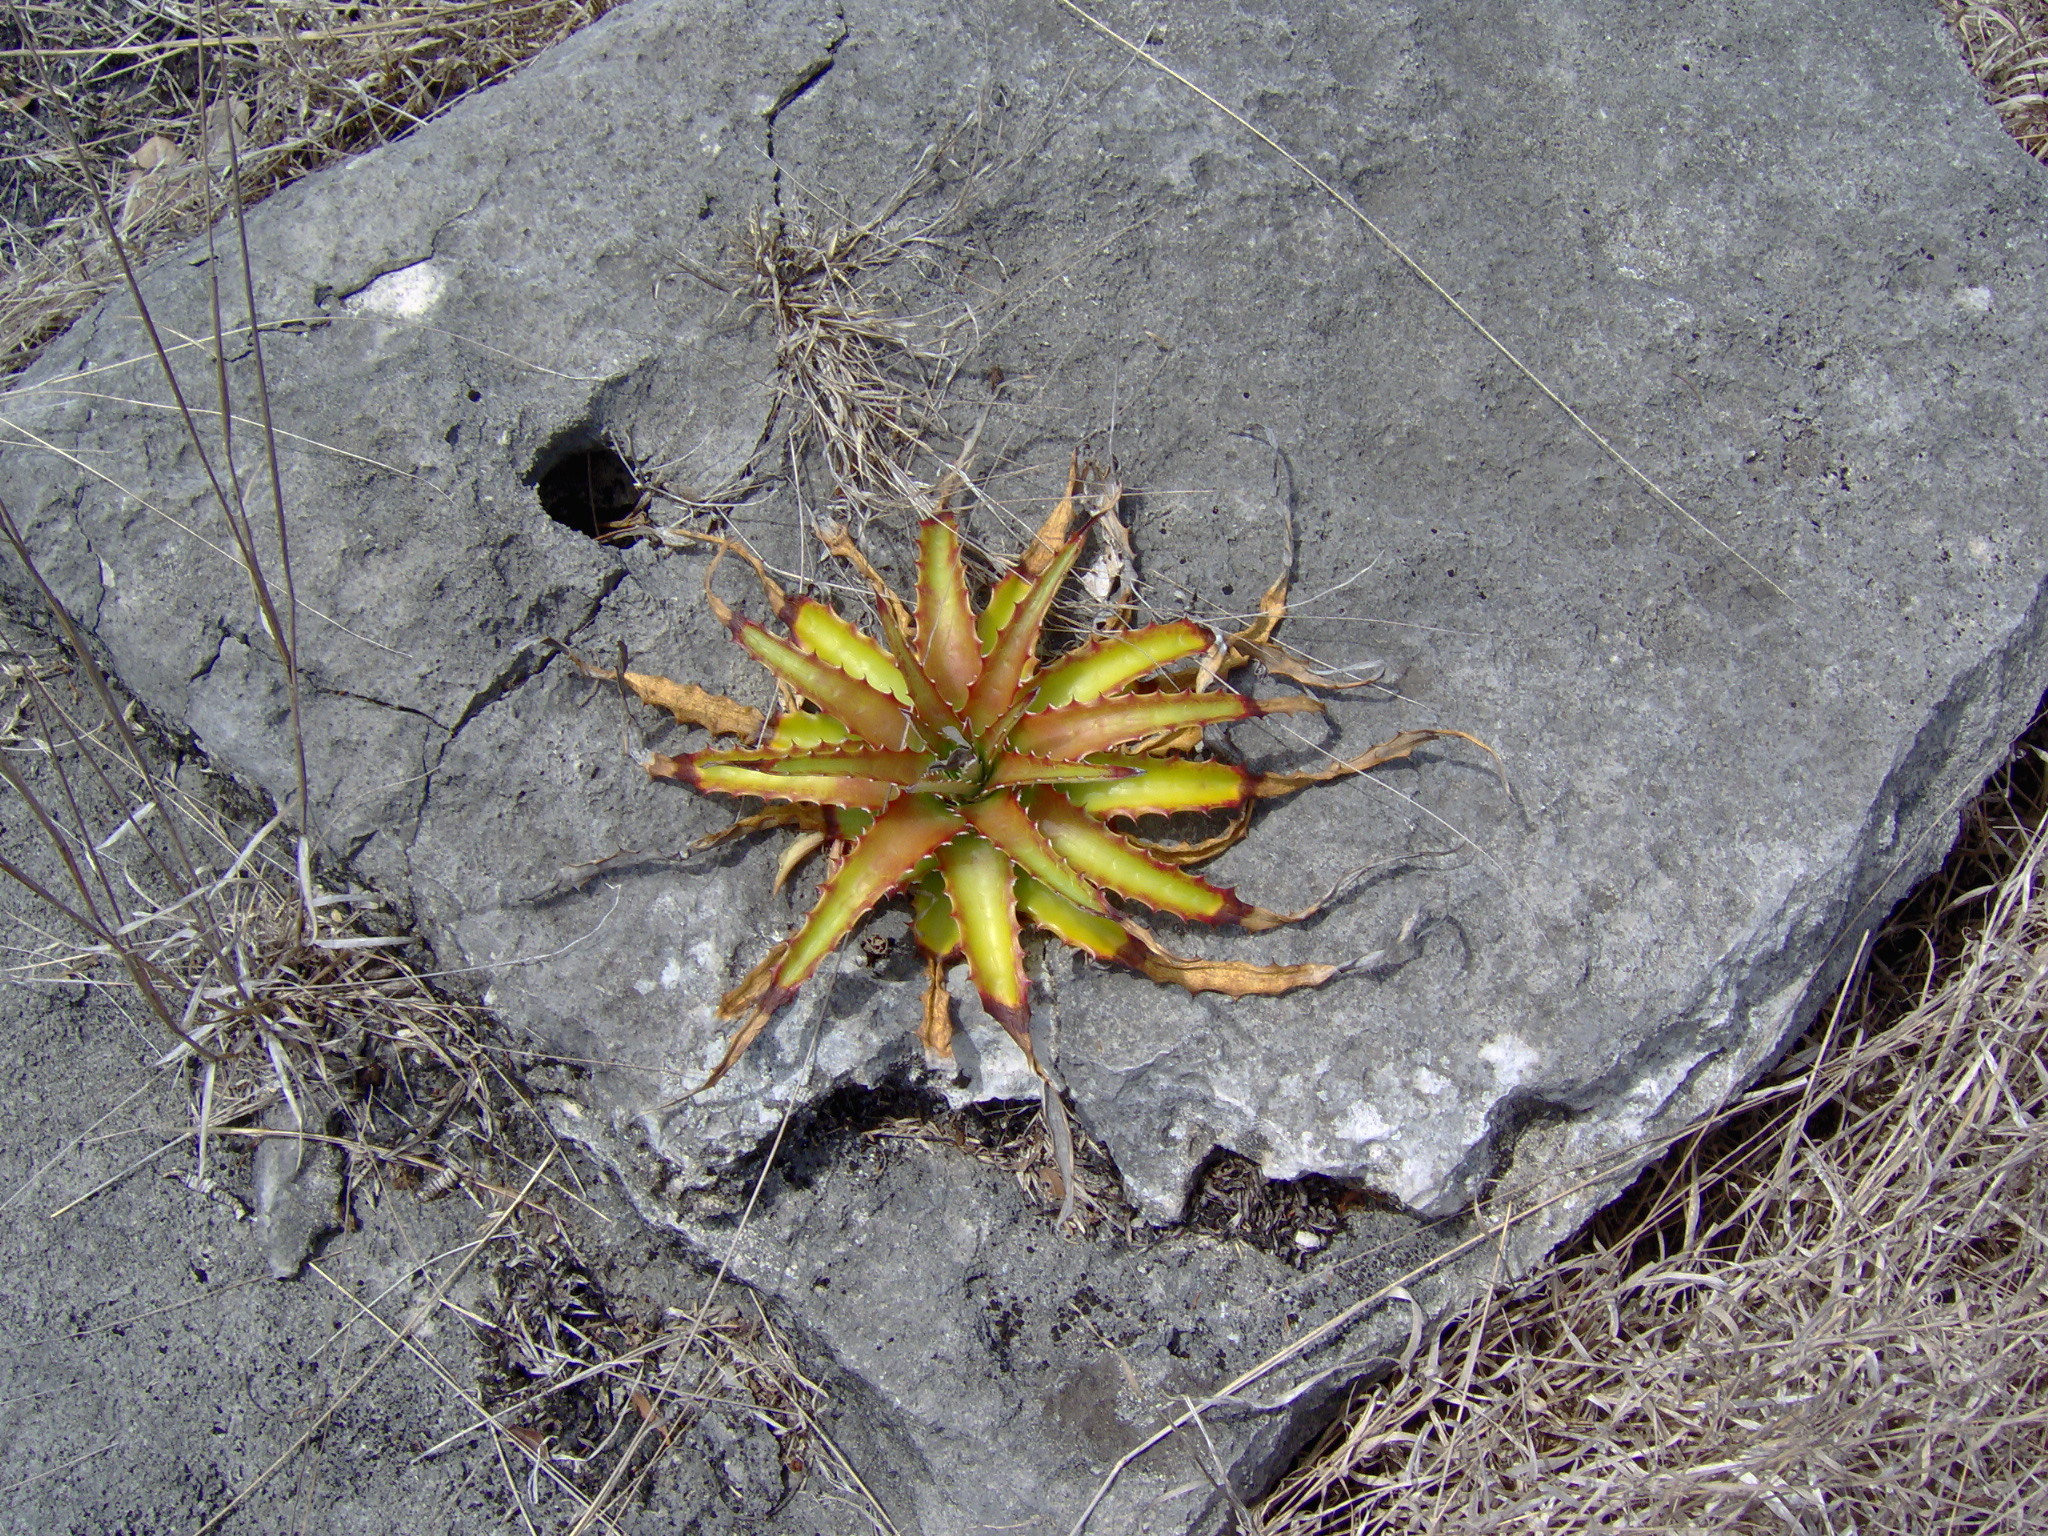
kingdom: Plantae
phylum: Tracheophyta
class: Liliopsida
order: Poales
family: Bromeliaceae
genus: Hechtia
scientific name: Hechtia myriantha
